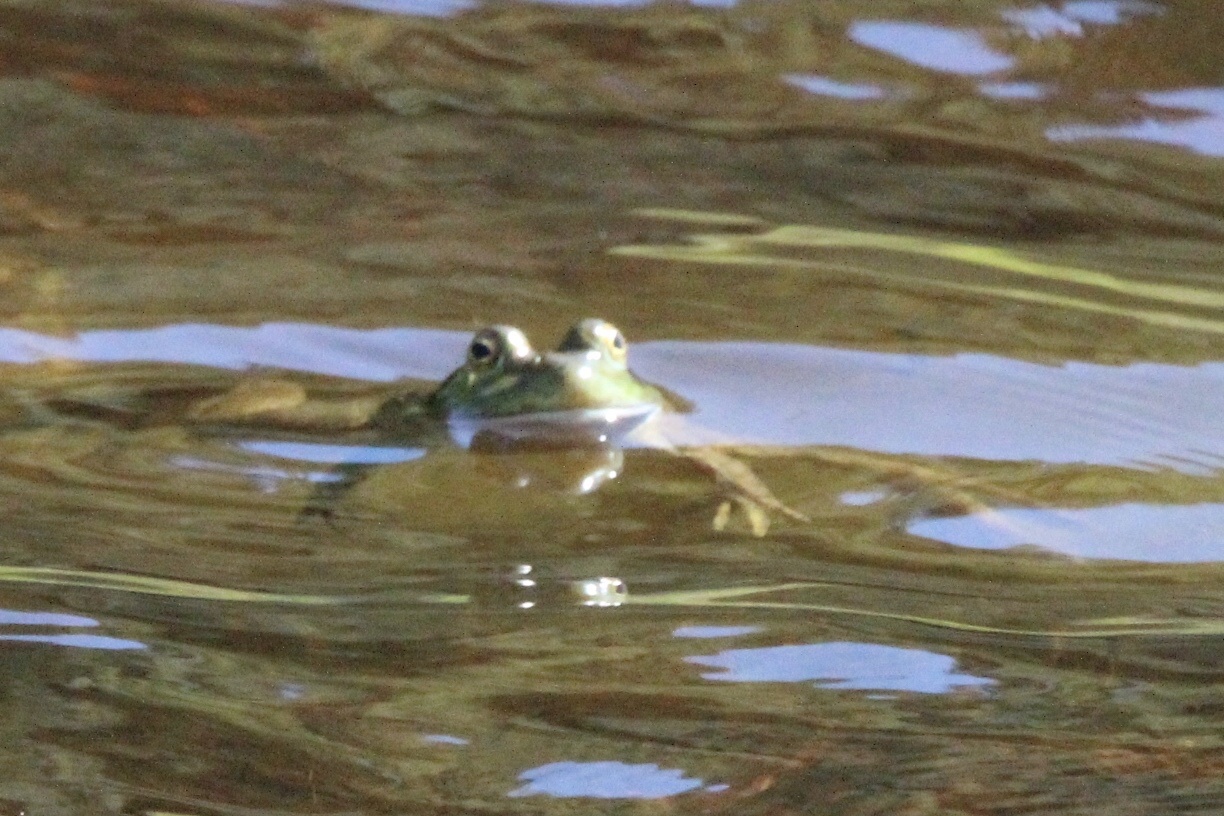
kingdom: Animalia
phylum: Chordata
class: Amphibia
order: Anura
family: Ranidae
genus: Lithobates
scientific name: Lithobates catesbeianus
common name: American bullfrog
